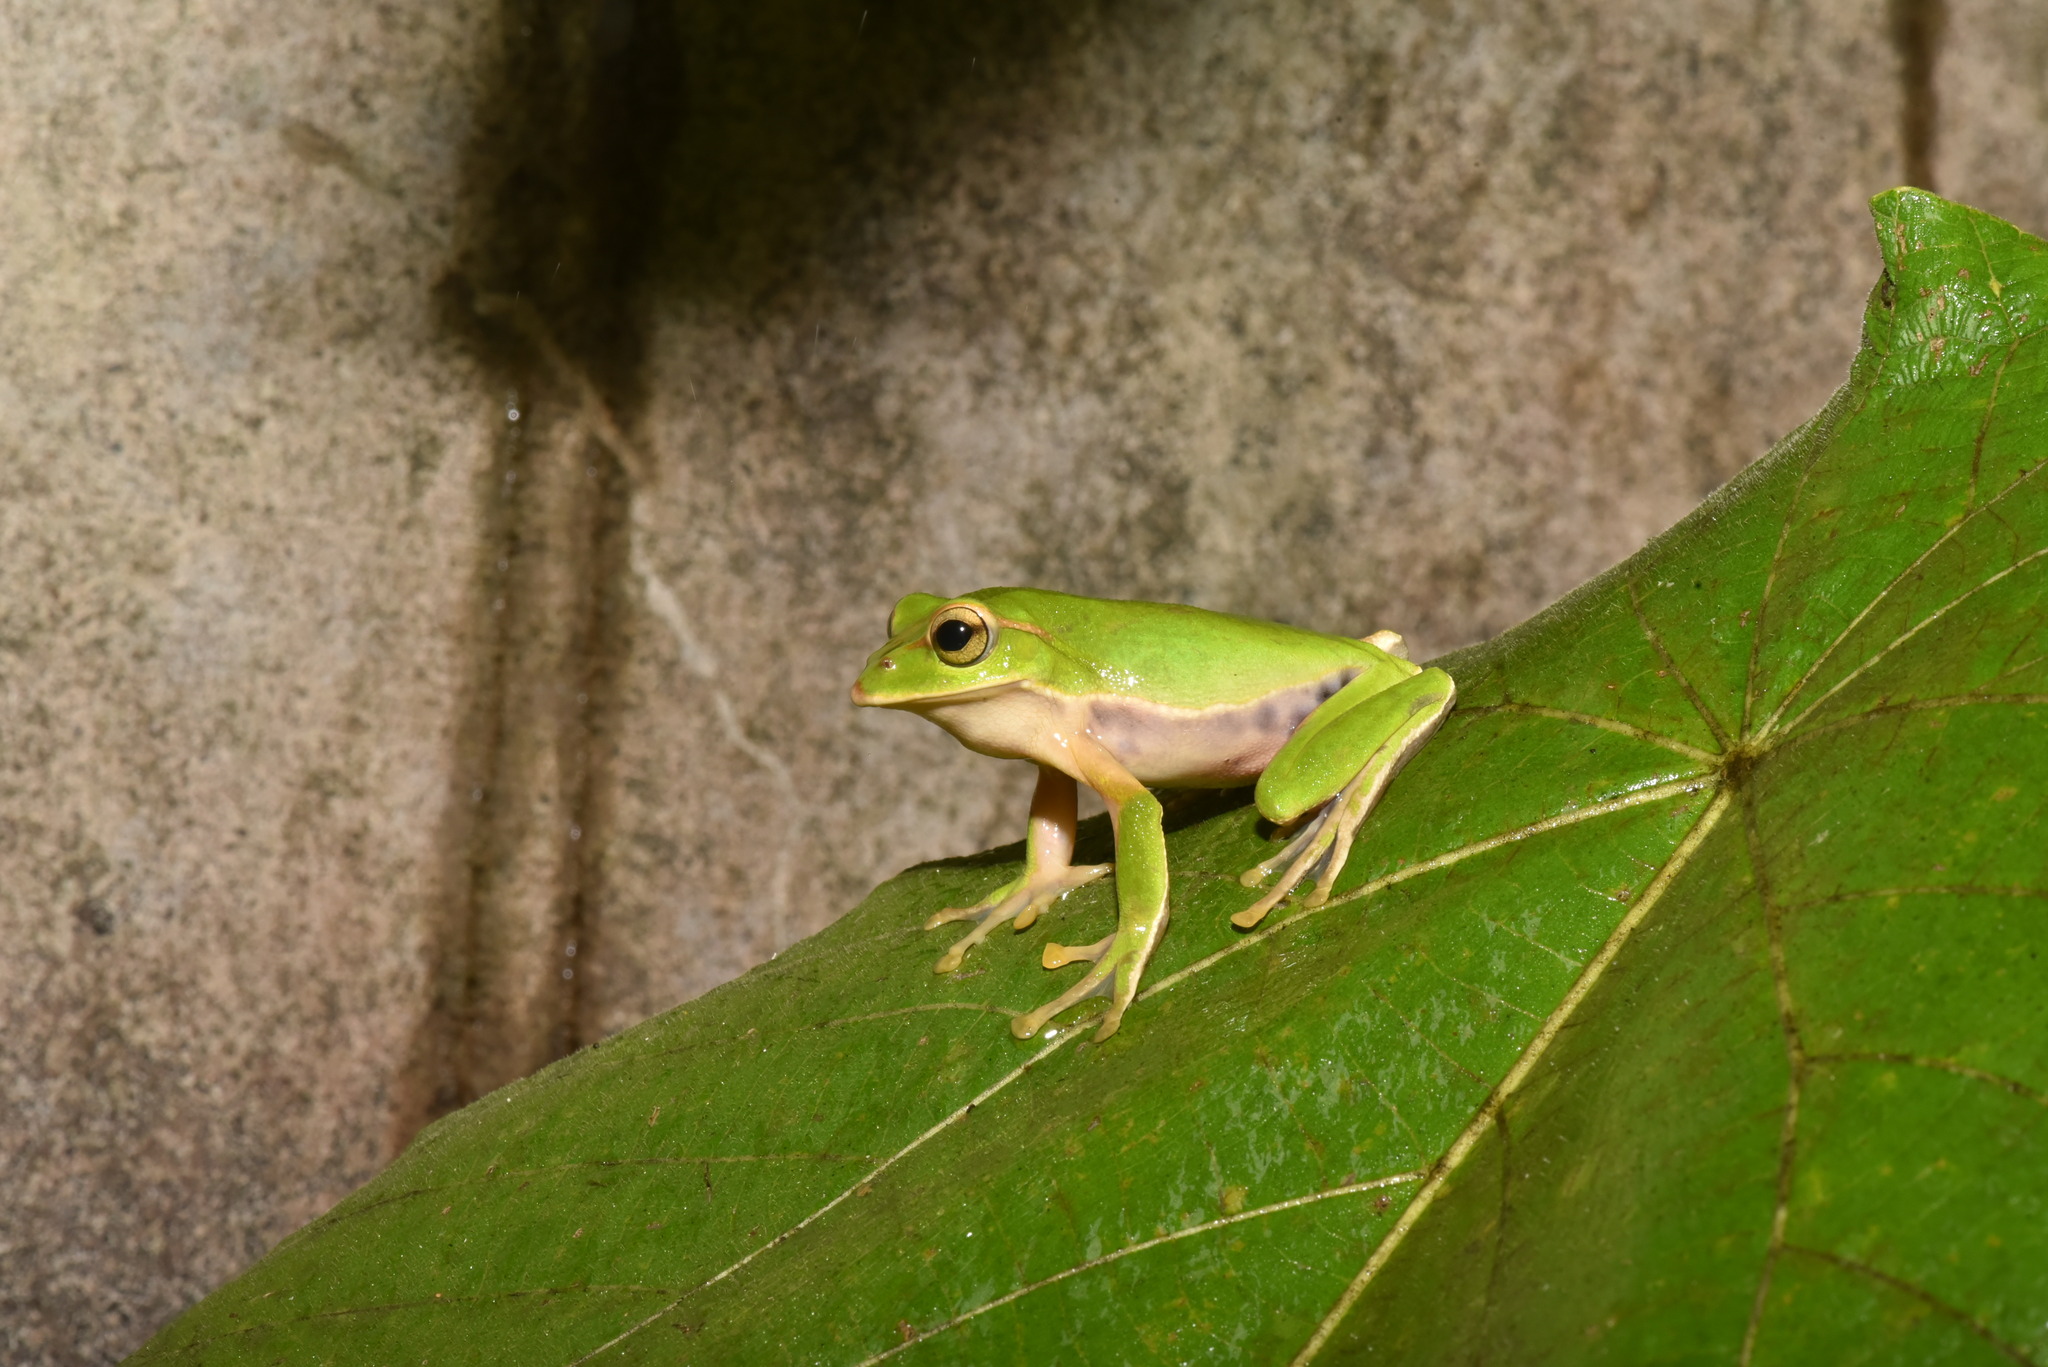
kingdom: Animalia
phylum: Chordata
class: Amphibia
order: Anura
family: Rhacophoridae
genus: Zhangixalus
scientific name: Zhangixalus prasinatus
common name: Tributary flying frog
